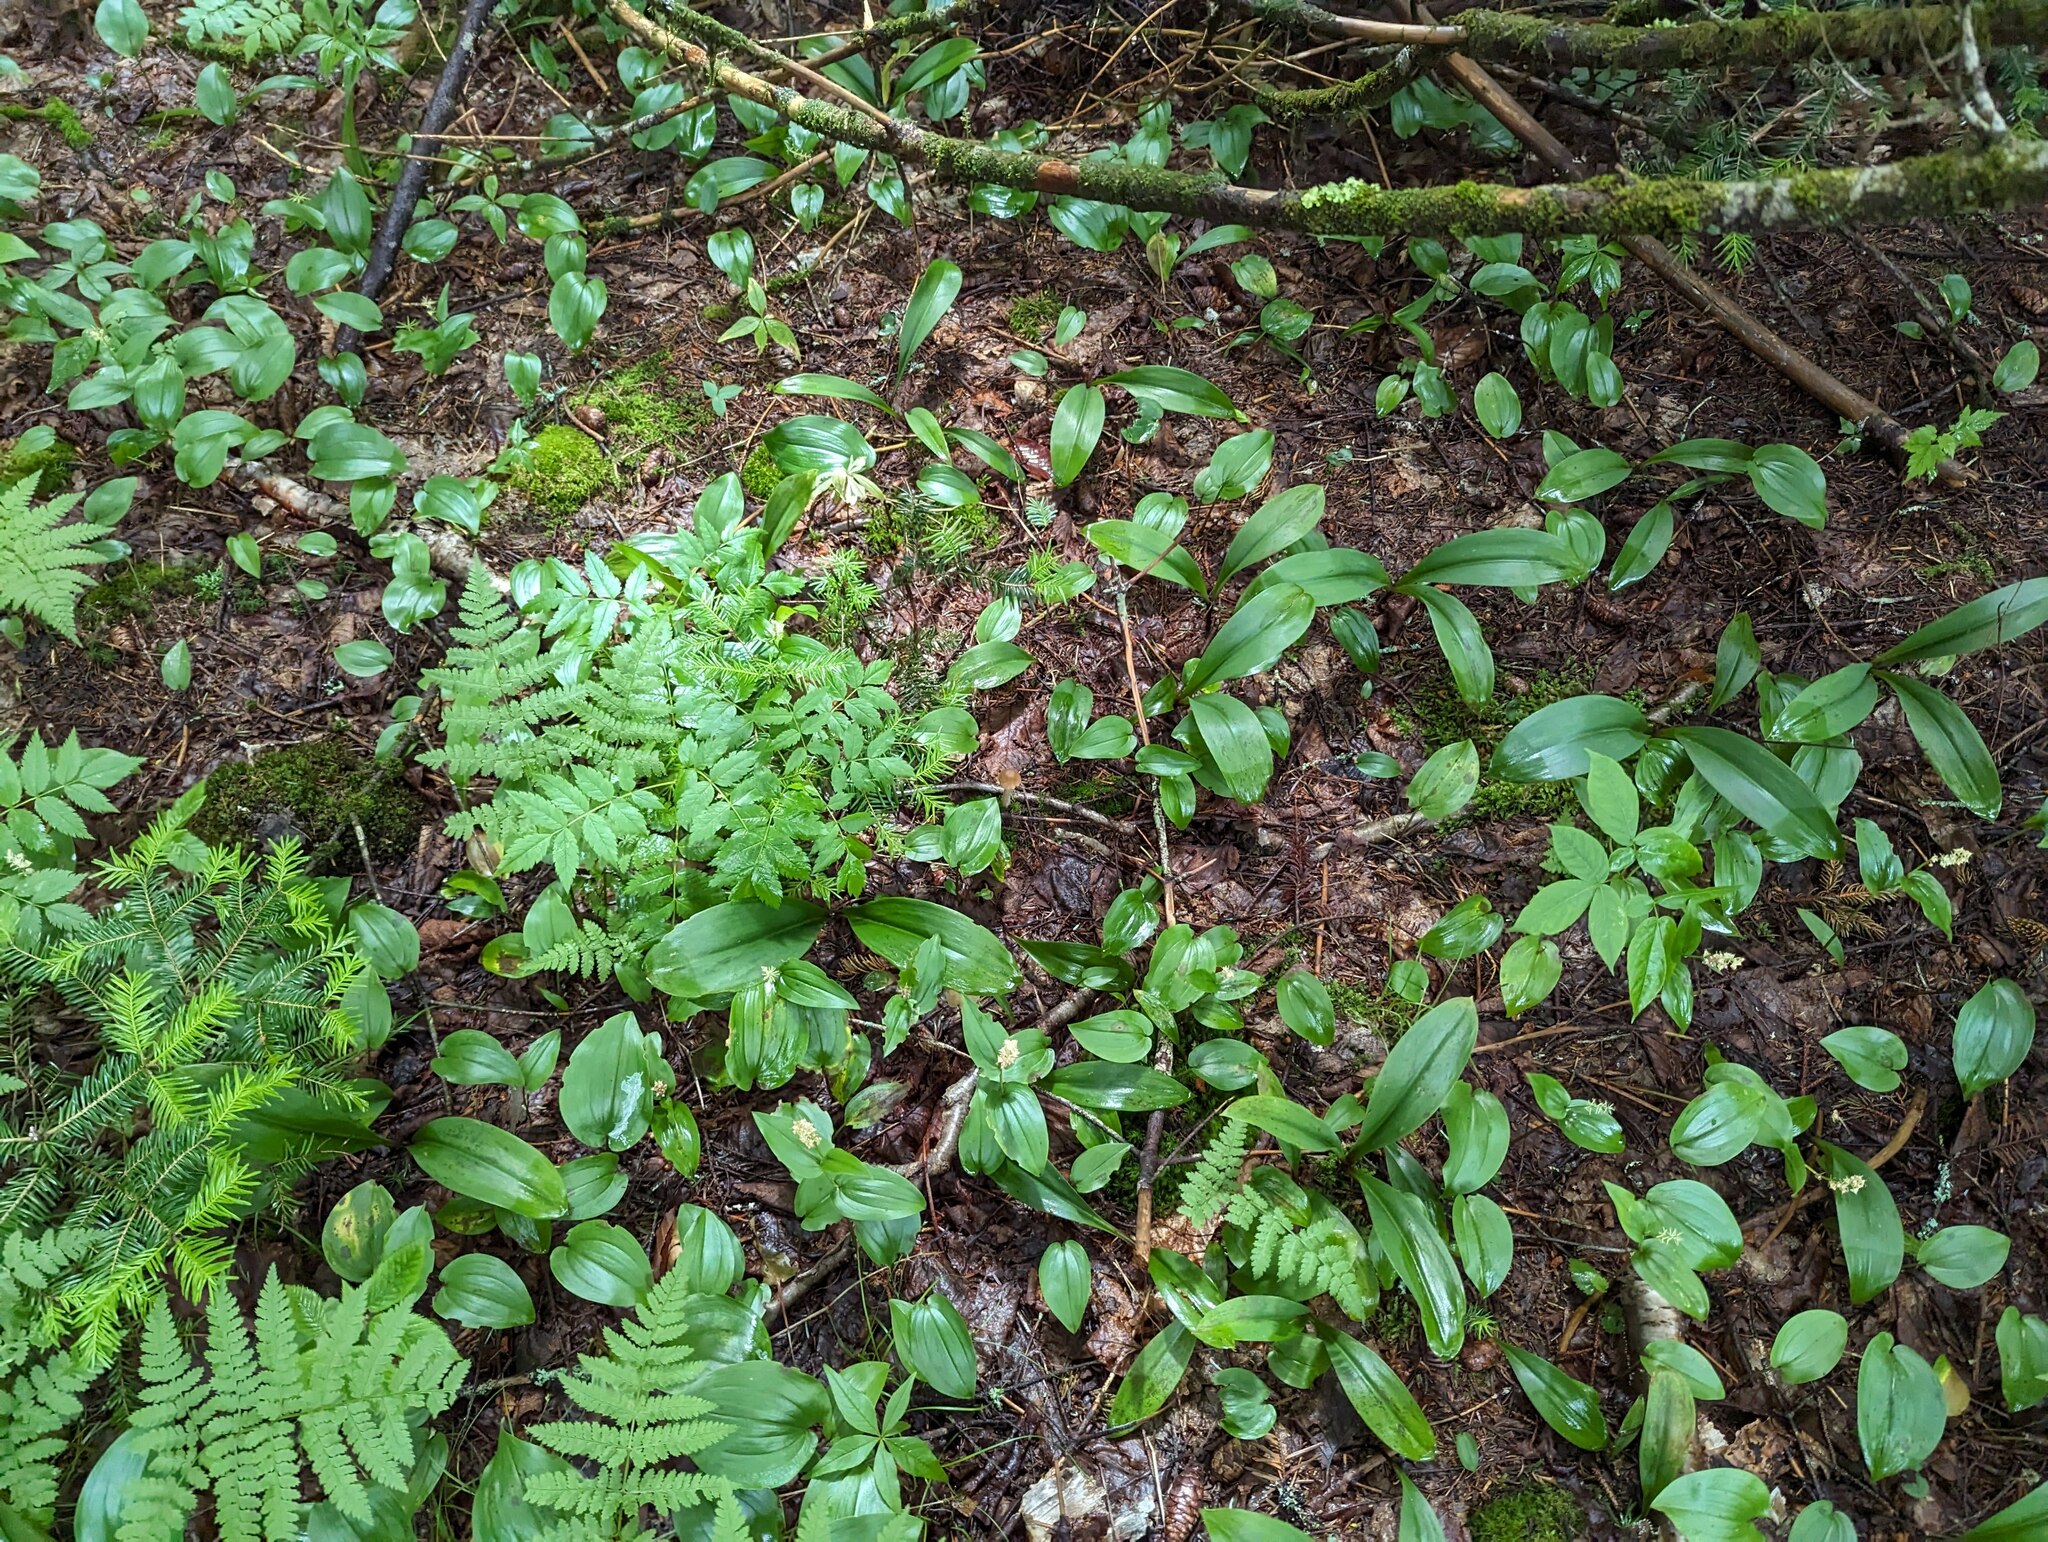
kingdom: Plantae
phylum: Tracheophyta
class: Liliopsida
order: Liliales
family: Liliaceae
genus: Clintonia
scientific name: Clintonia borealis
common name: Yellow clintonia
